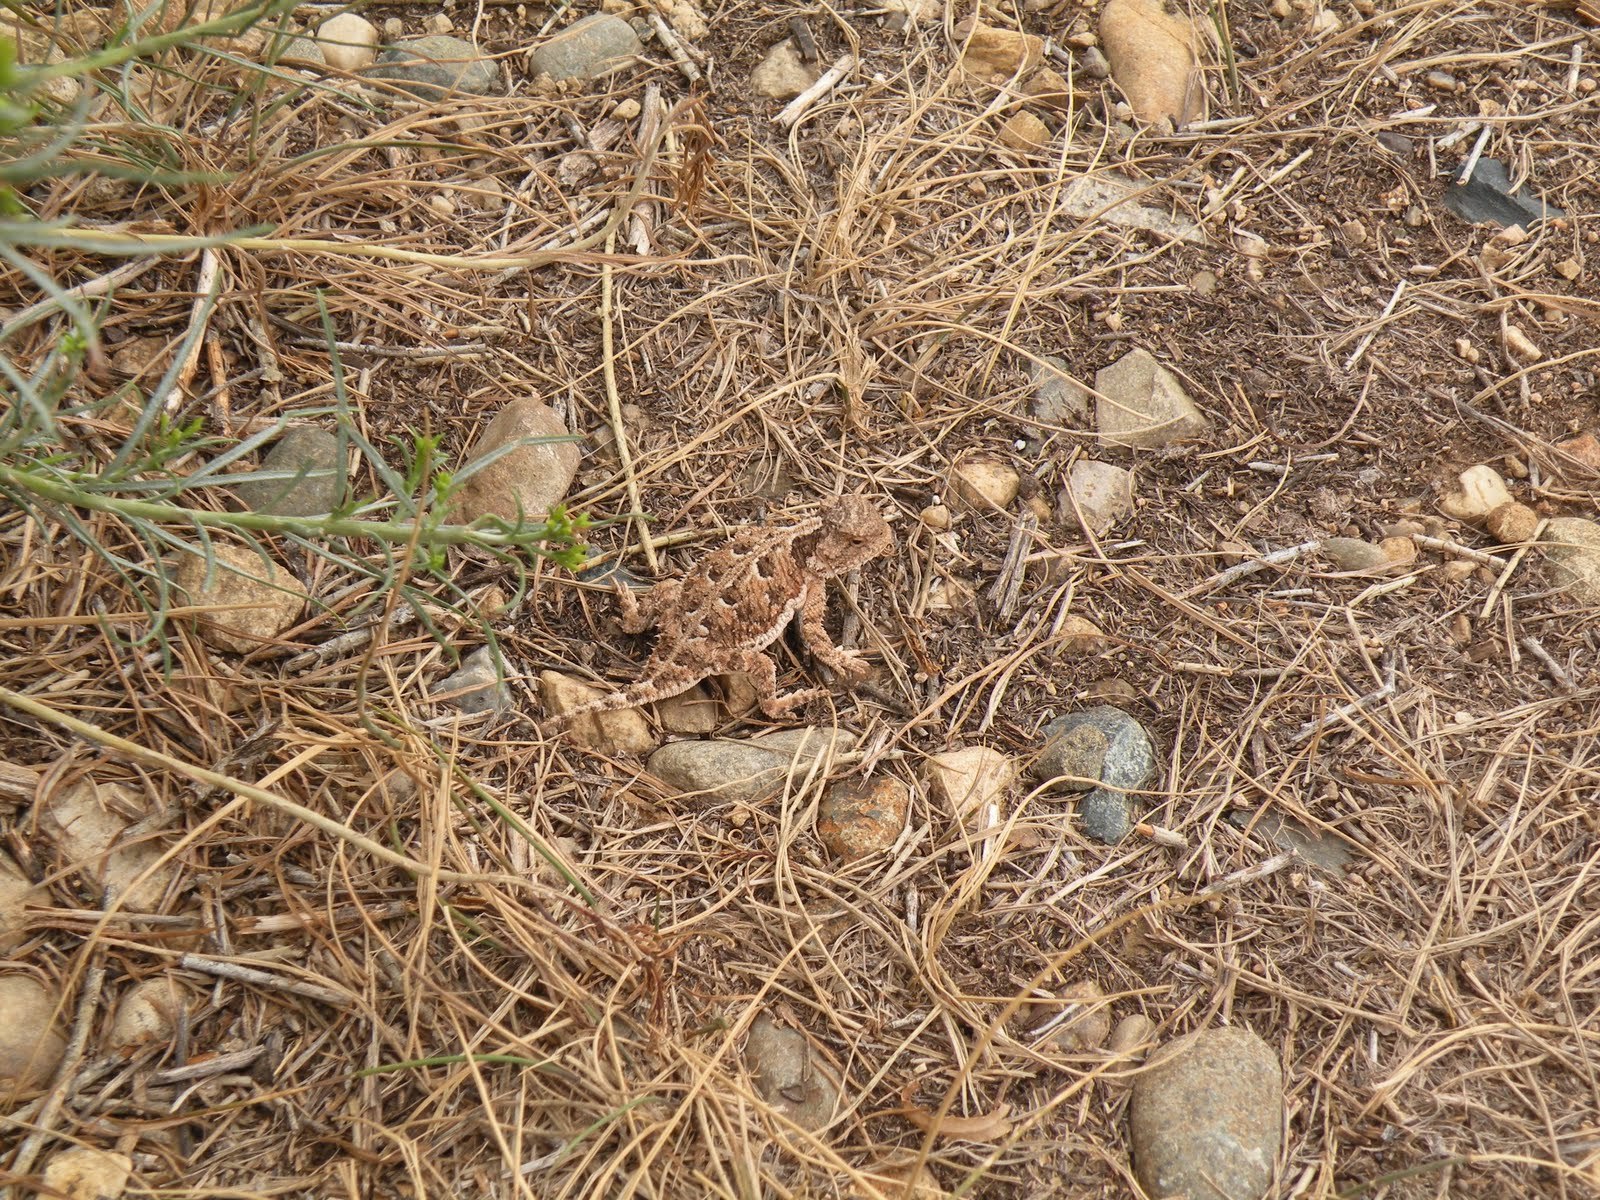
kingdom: Animalia
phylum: Chordata
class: Squamata
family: Phrynosomatidae
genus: Phrynosoma
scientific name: Phrynosoma hernandesi
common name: Greater short-horned lizard
